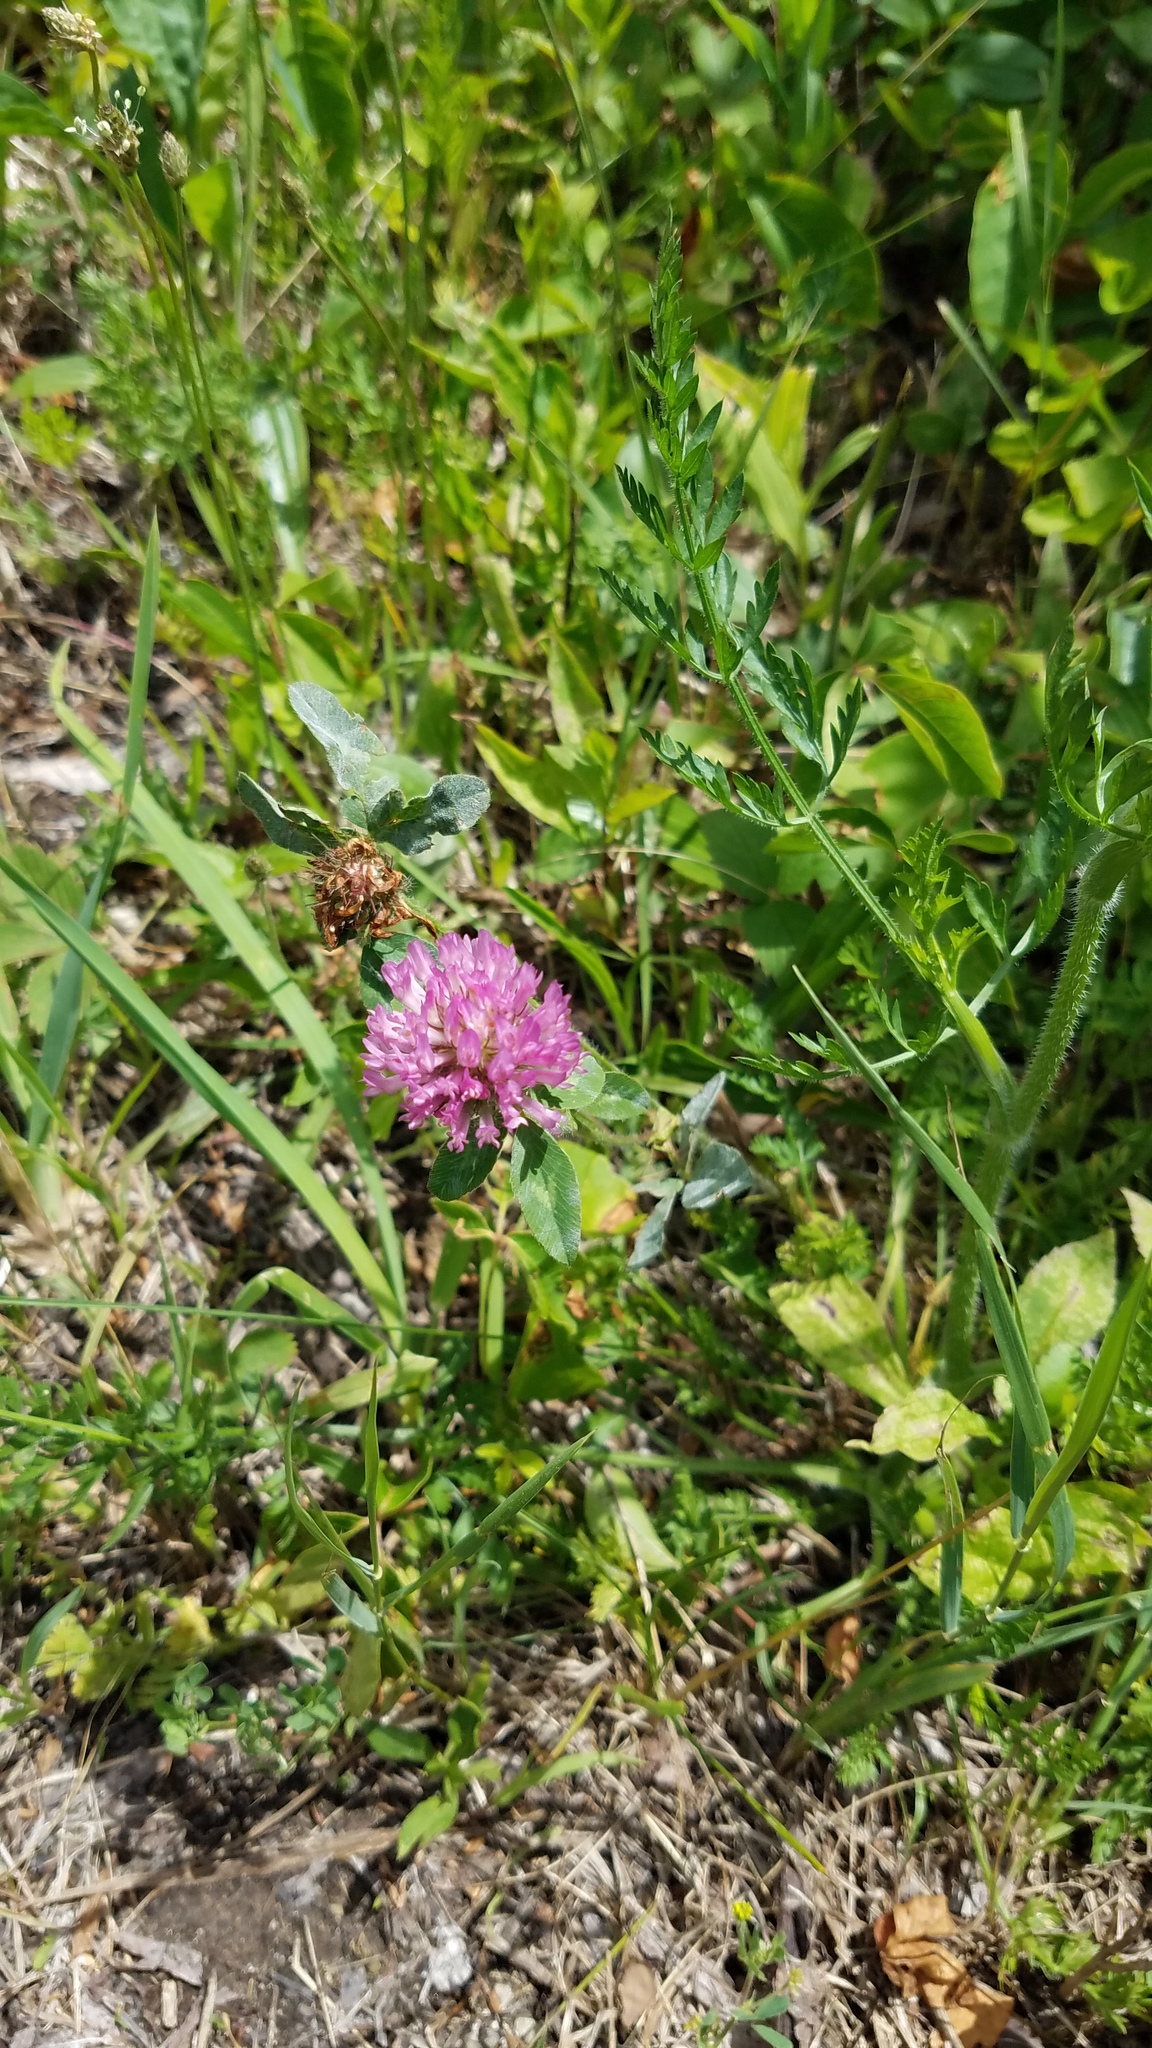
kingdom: Plantae
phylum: Tracheophyta
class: Magnoliopsida
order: Fabales
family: Fabaceae
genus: Trifolium
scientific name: Trifolium pratense
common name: Red clover
